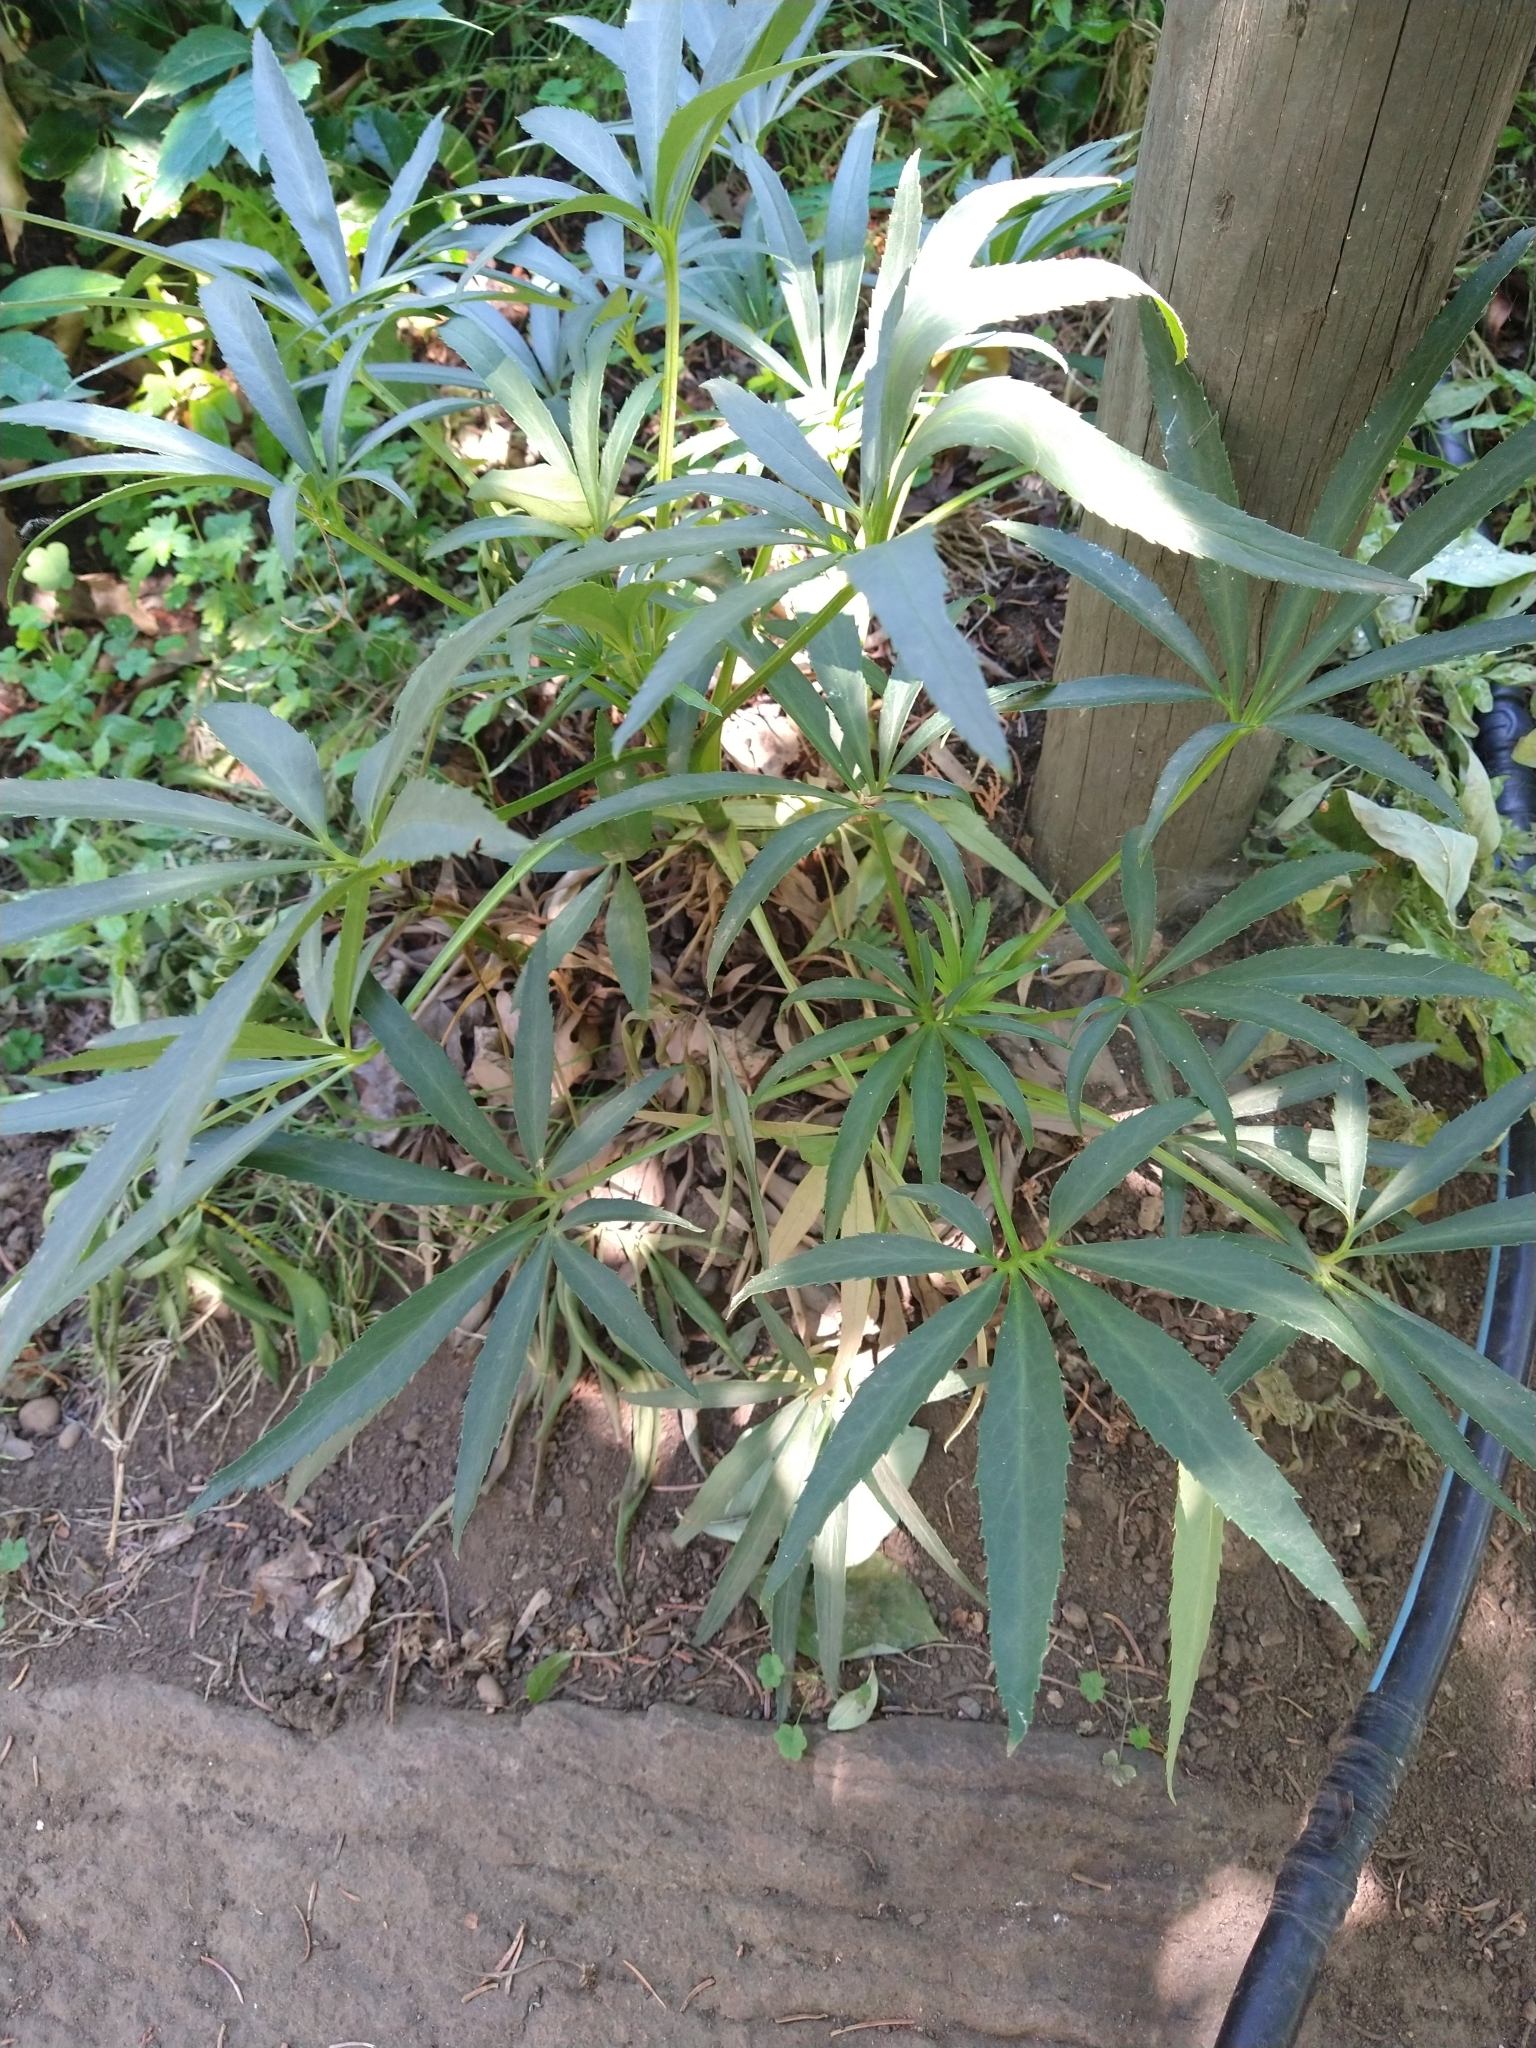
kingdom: Plantae
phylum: Tracheophyta
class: Magnoliopsida
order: Ranunculales
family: Ranunculaceae
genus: Helleborus
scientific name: Helleborus foetidus
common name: Stinking hellebore
